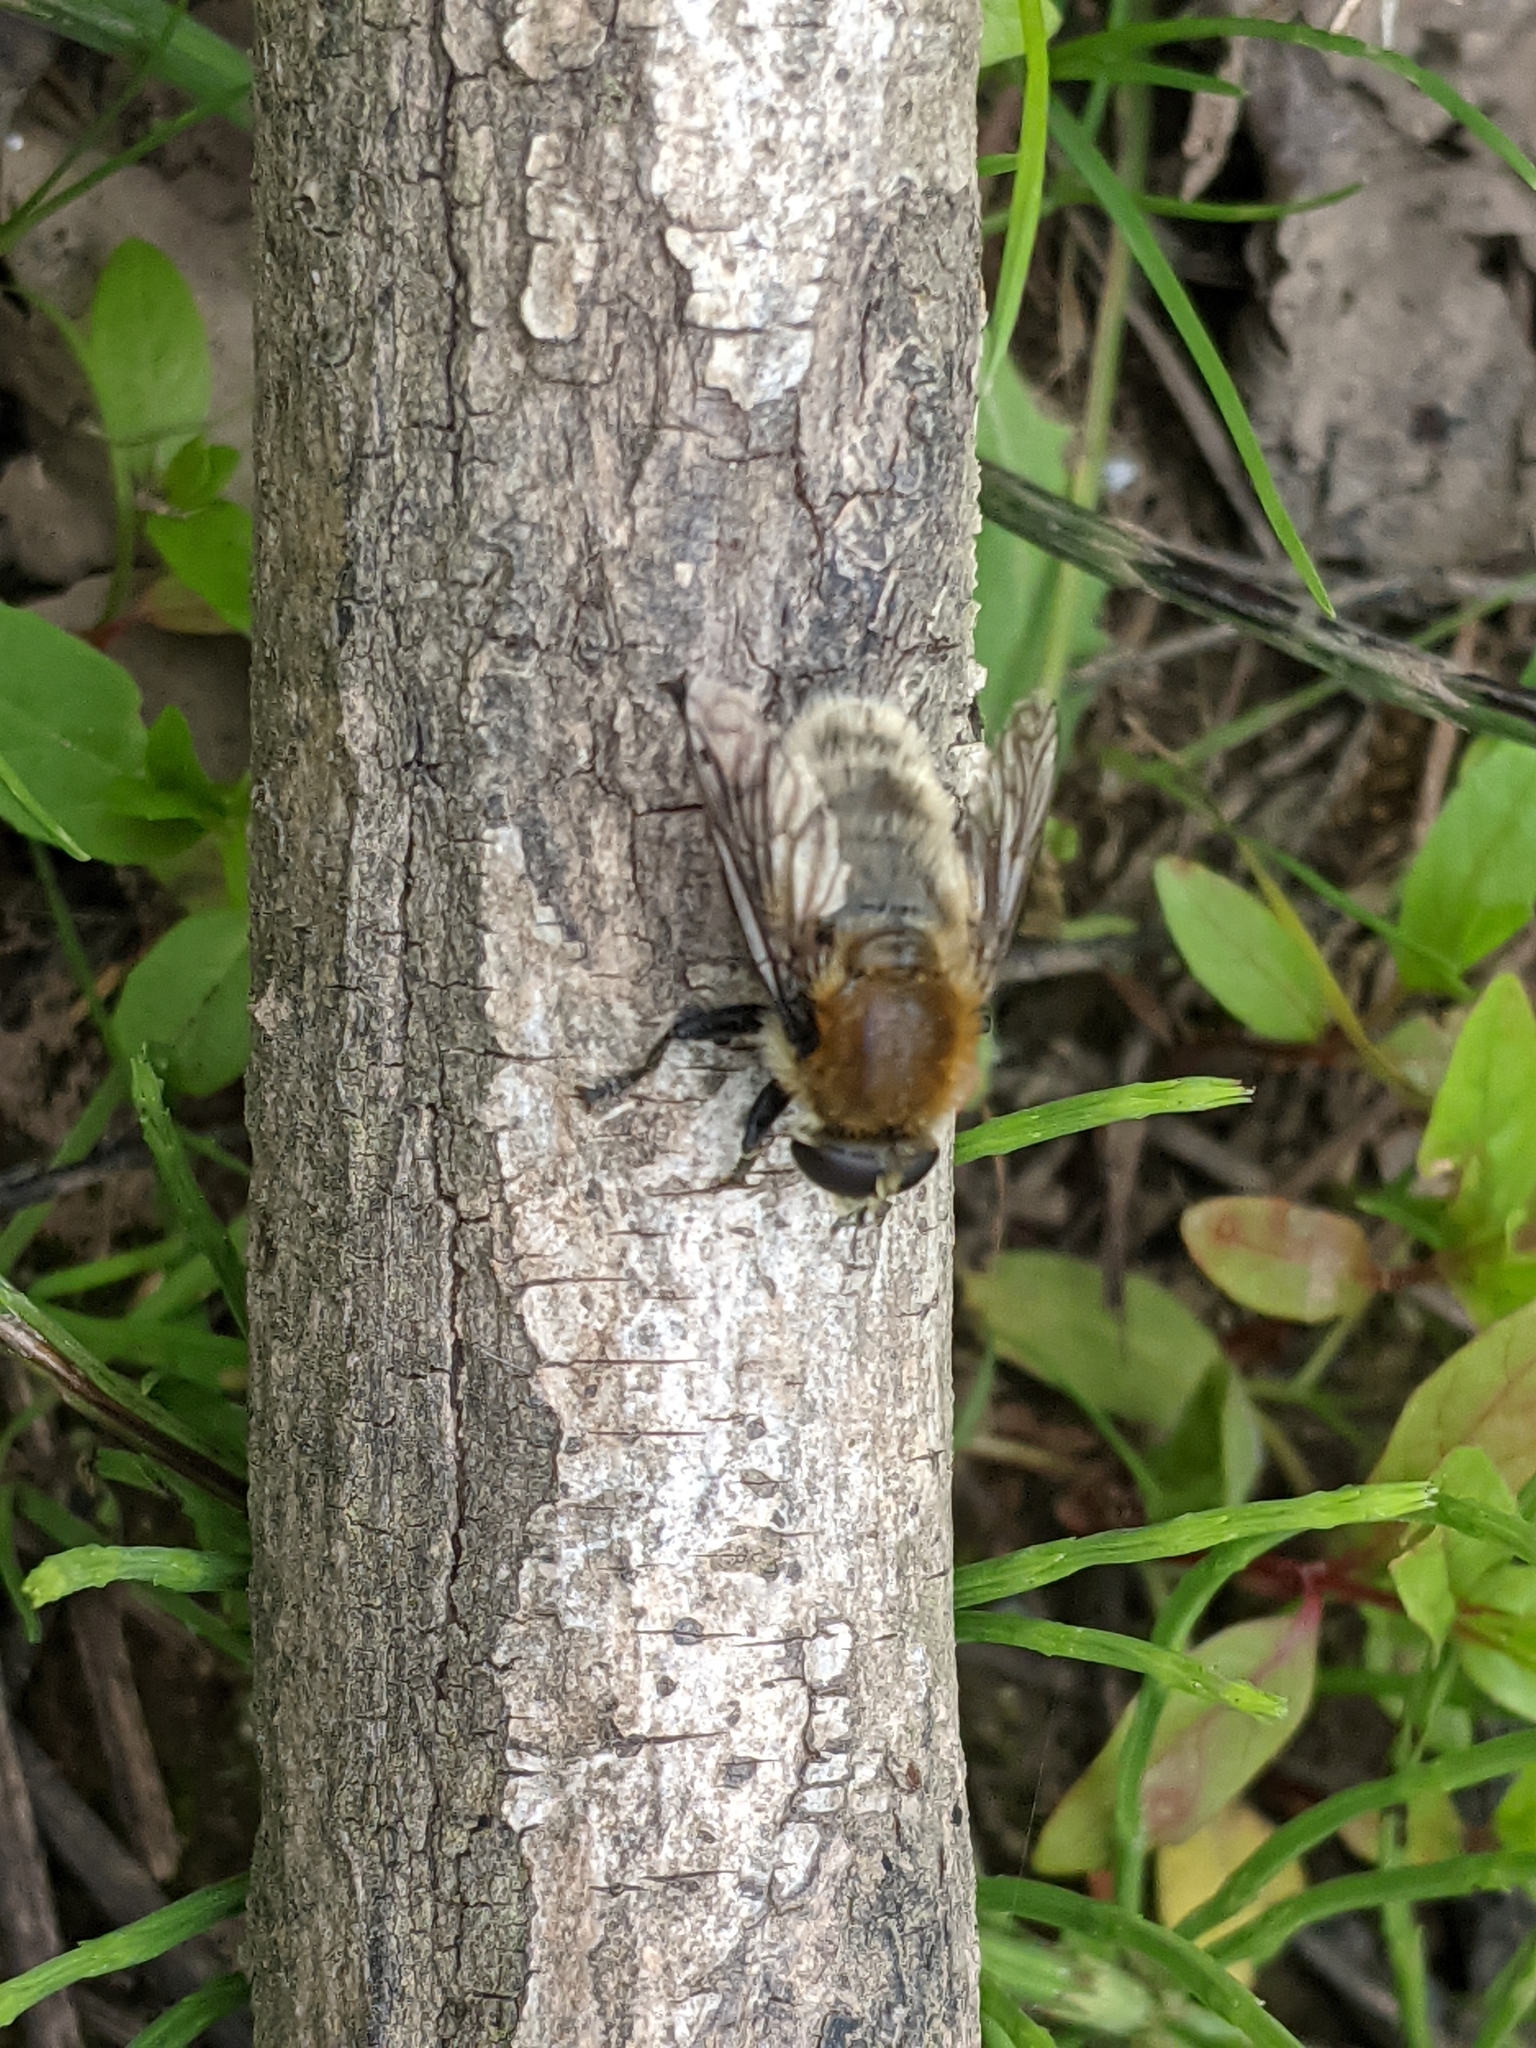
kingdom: Animalia
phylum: Arthropoda
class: Insecta
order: Diptera
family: Syrphidae
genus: Merodon
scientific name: Merodon equestris
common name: Greater bulb-fly
